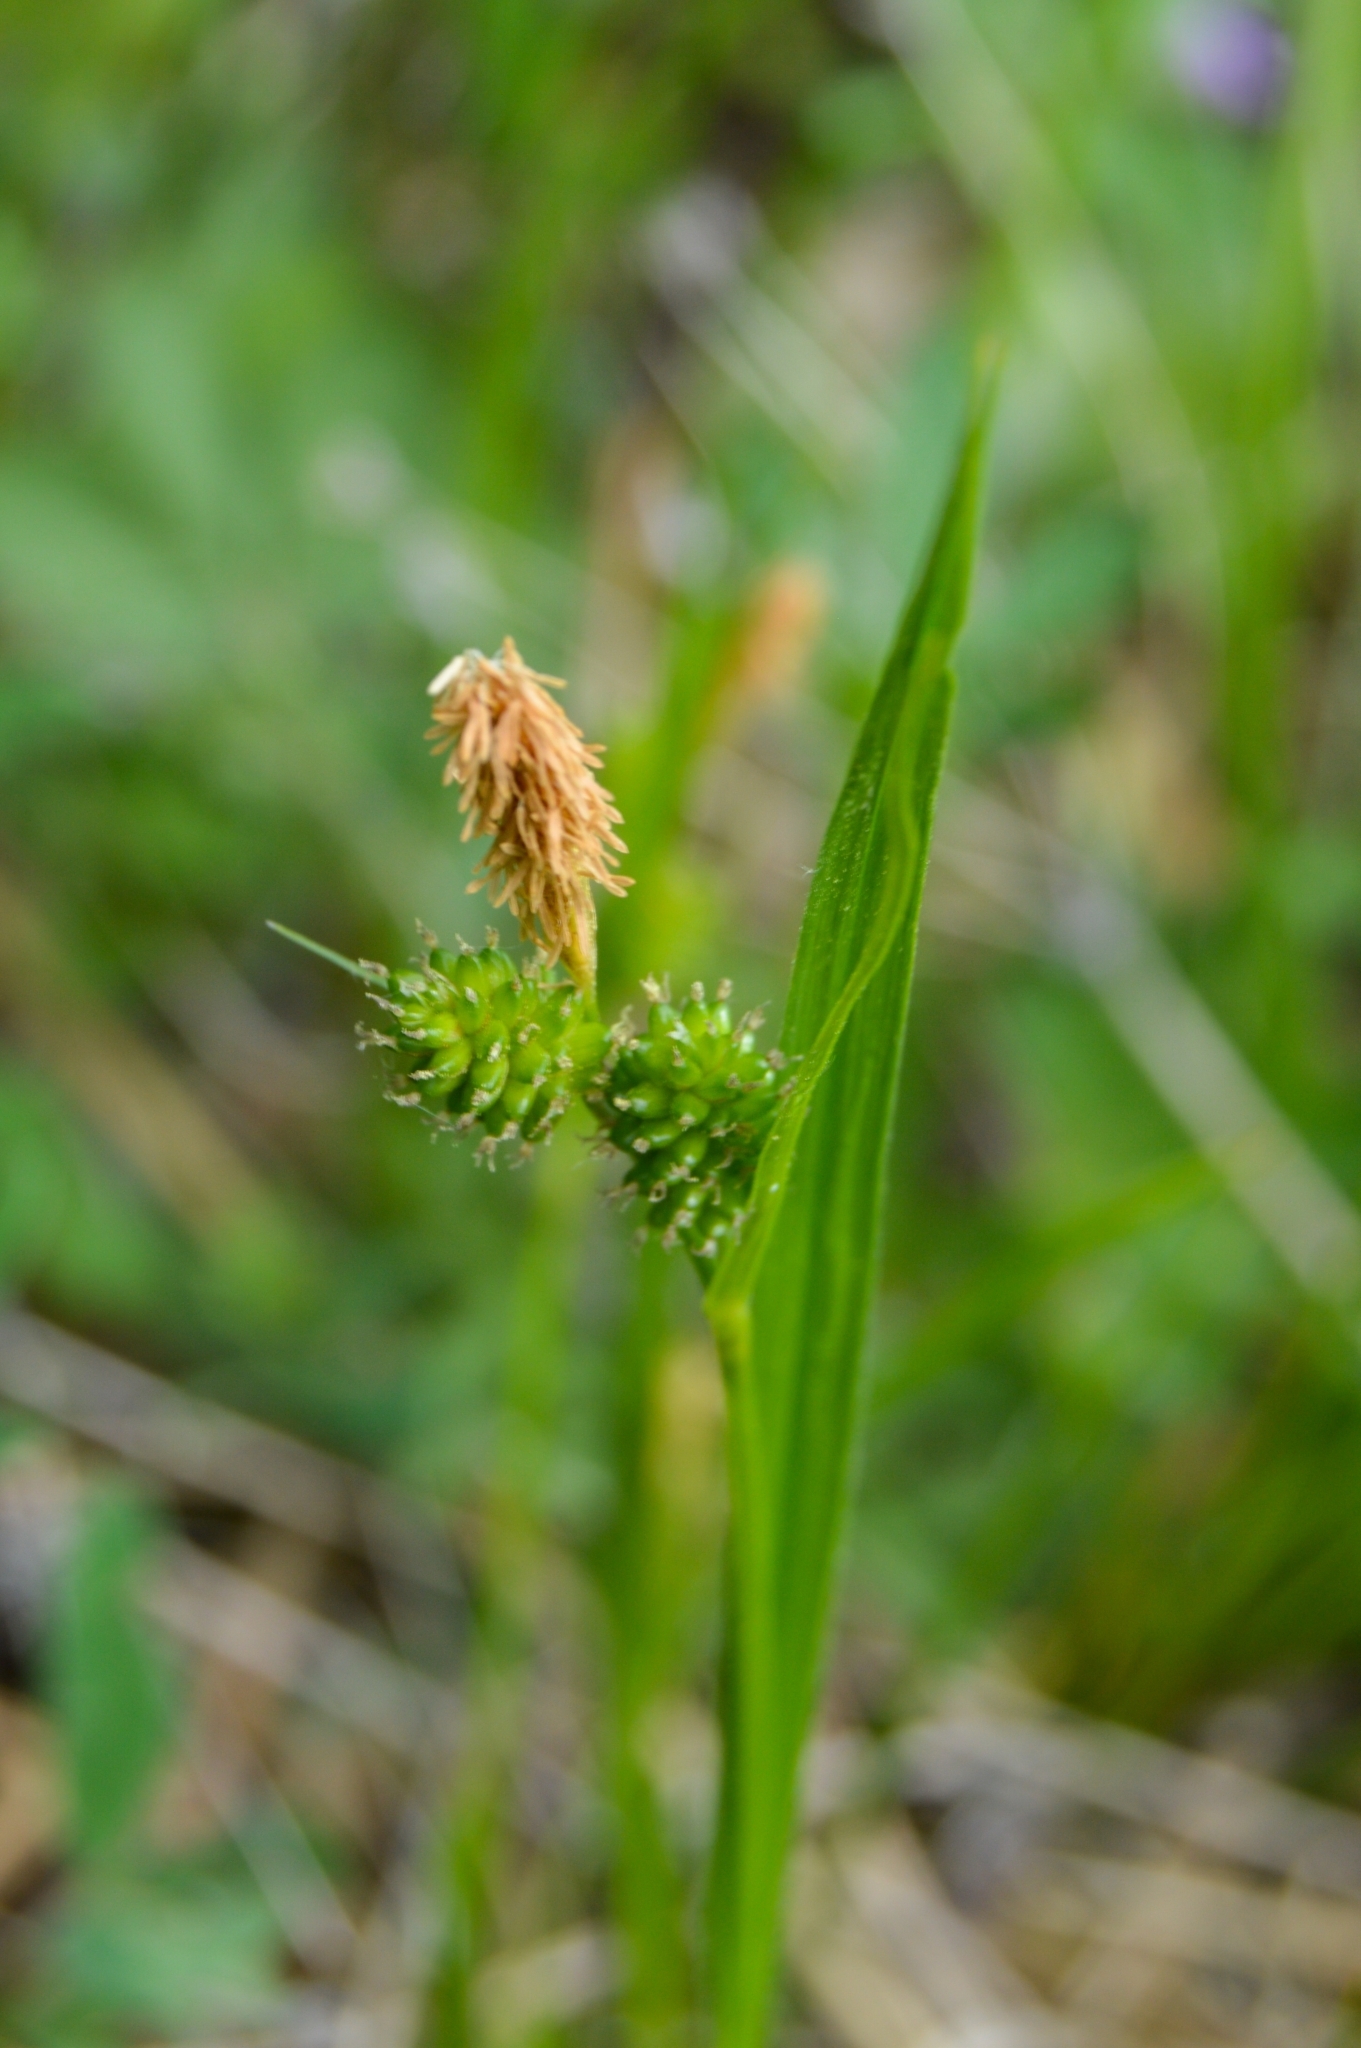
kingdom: Plantae
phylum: Tracheophyta
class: Liliopsida
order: Poales
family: Cyperaceae
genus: Carex
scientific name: Carex pallescens
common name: Pale sedge
